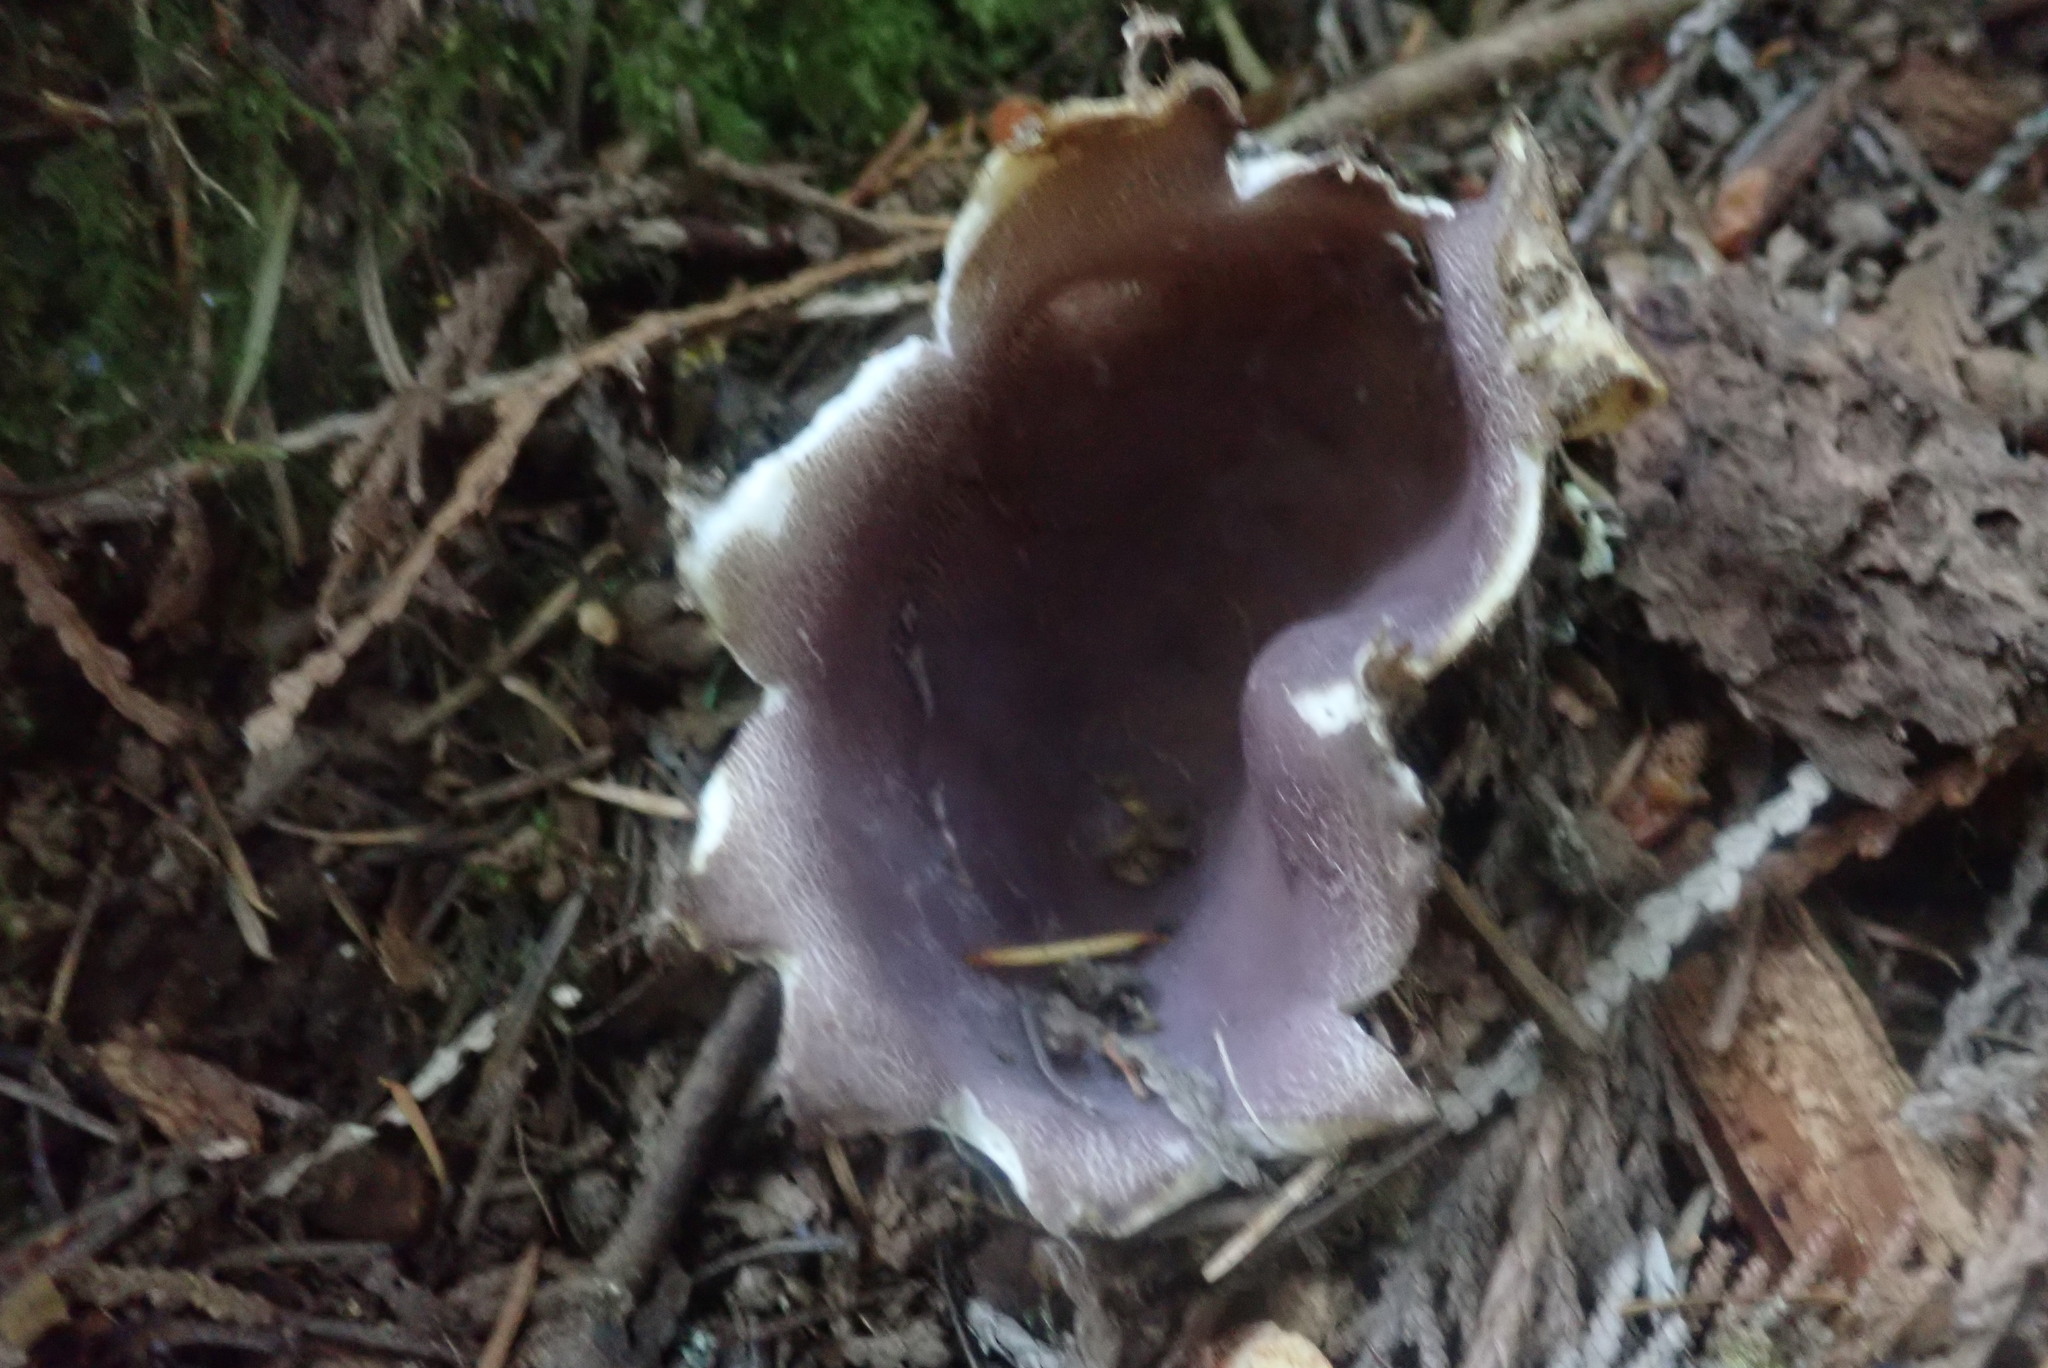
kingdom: Fungi
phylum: Ascomycota
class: Pezizomycetes
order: Pezizales
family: Pezizaceae
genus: Sarcosphaera
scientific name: Sarcosphaera coronaria
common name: Violet crowncup
